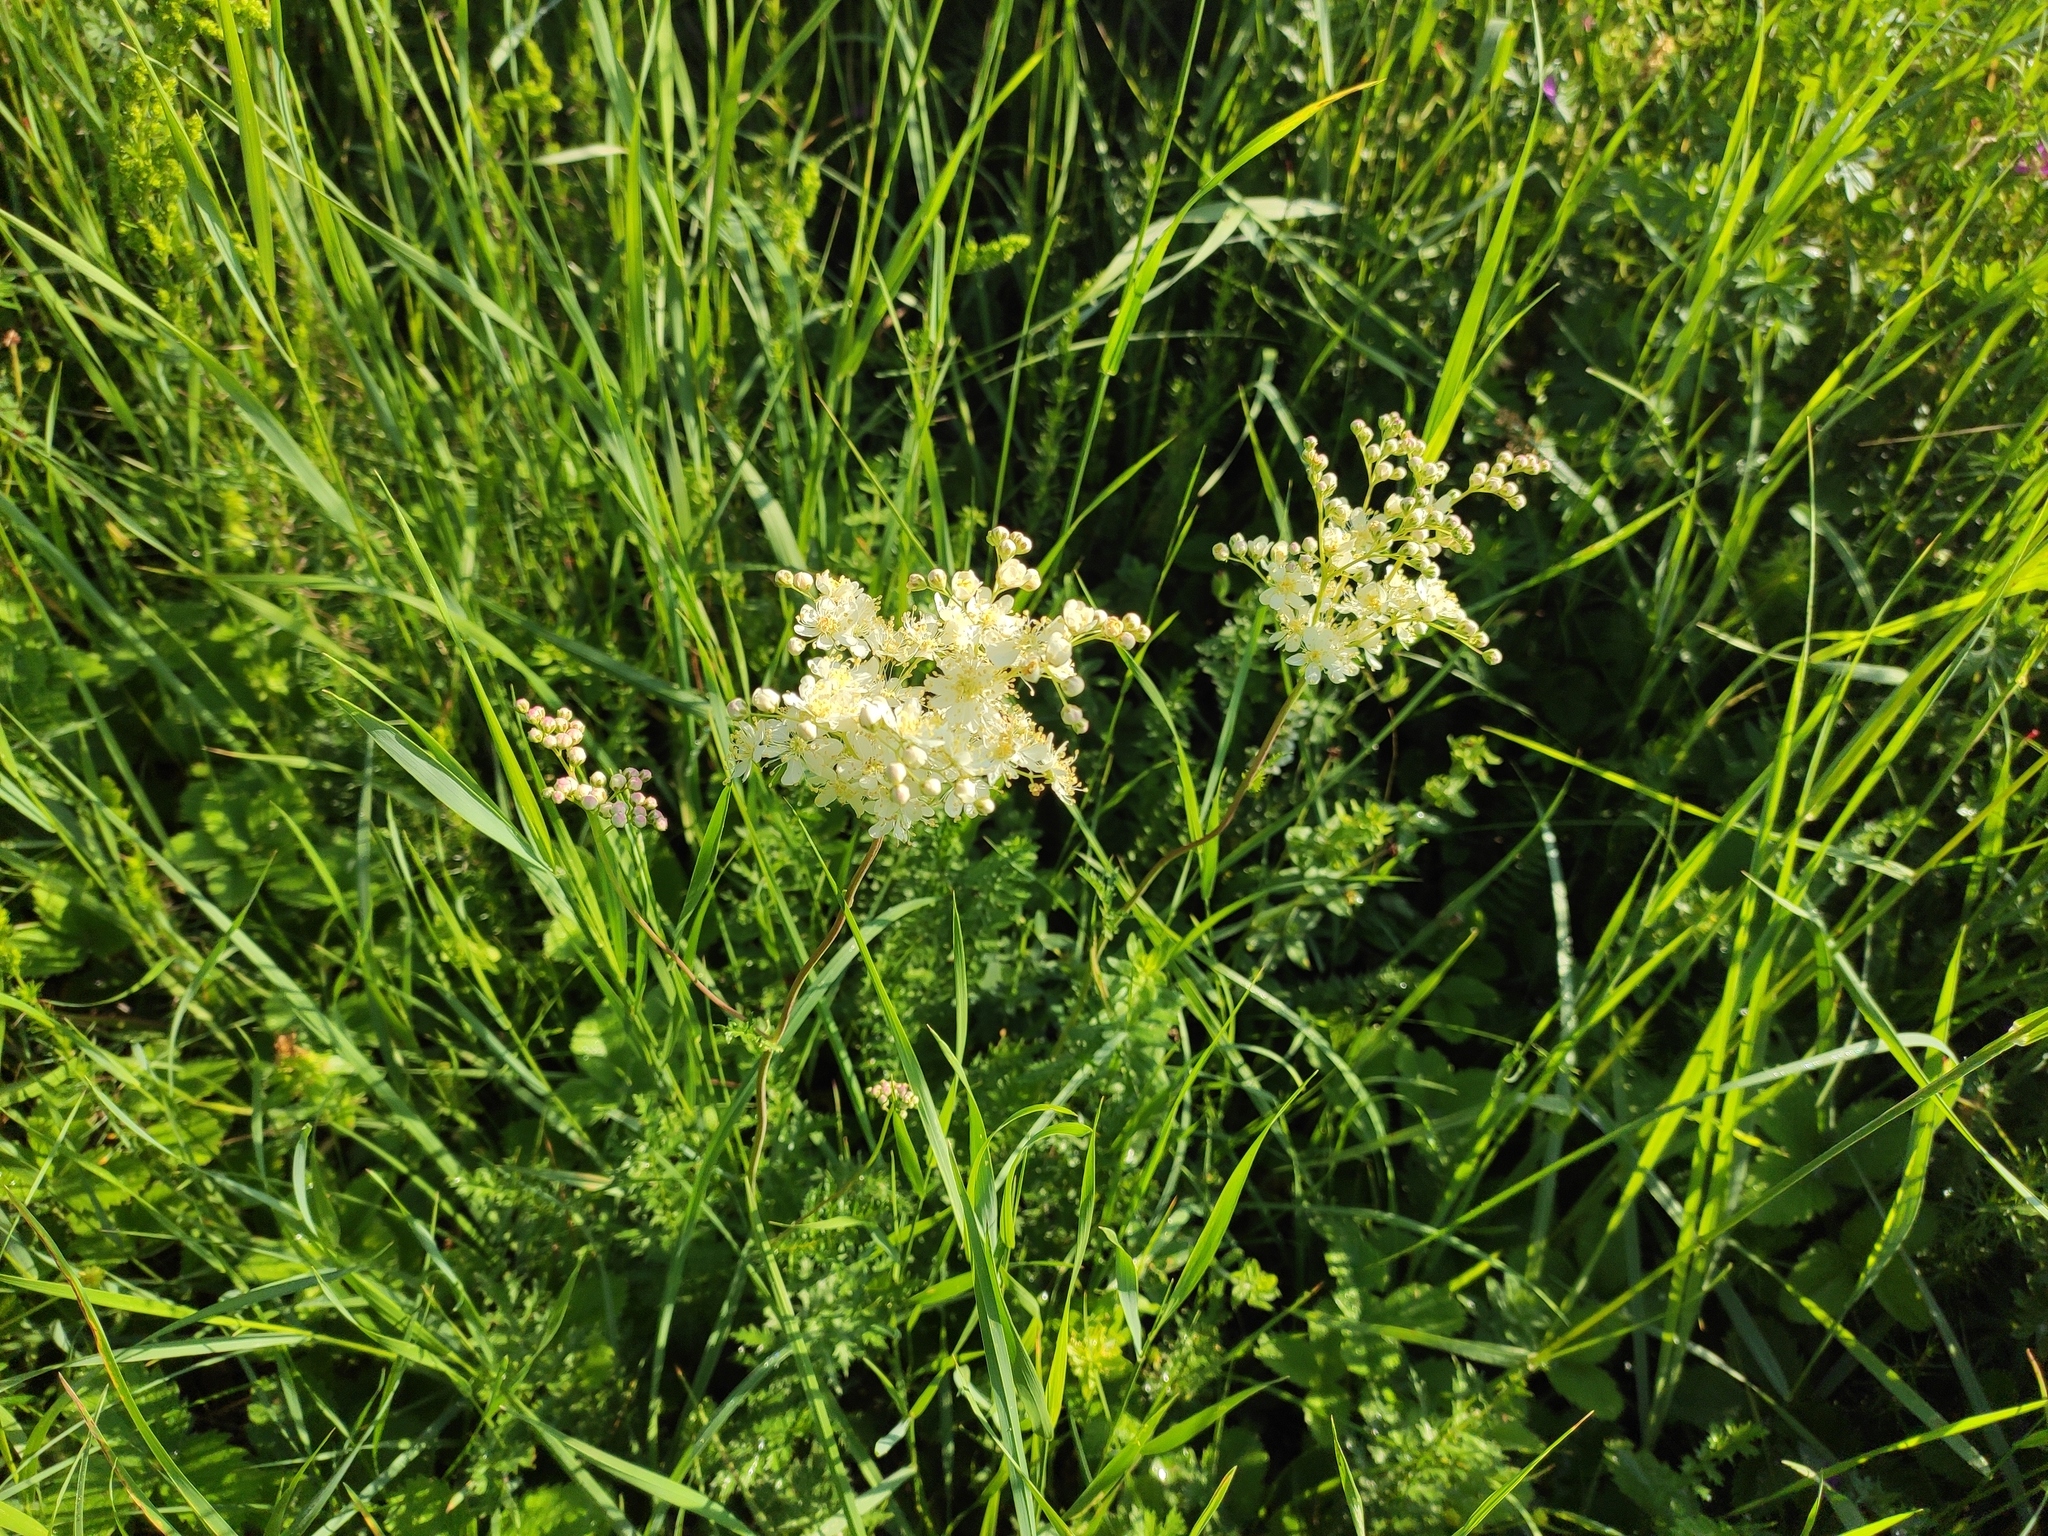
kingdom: Plantae
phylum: Tracheophyta
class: Magnoliopsida
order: Rosales
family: Rosaceae
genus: Filipendula
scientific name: Filipendula vulgaris
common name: Dropwort
